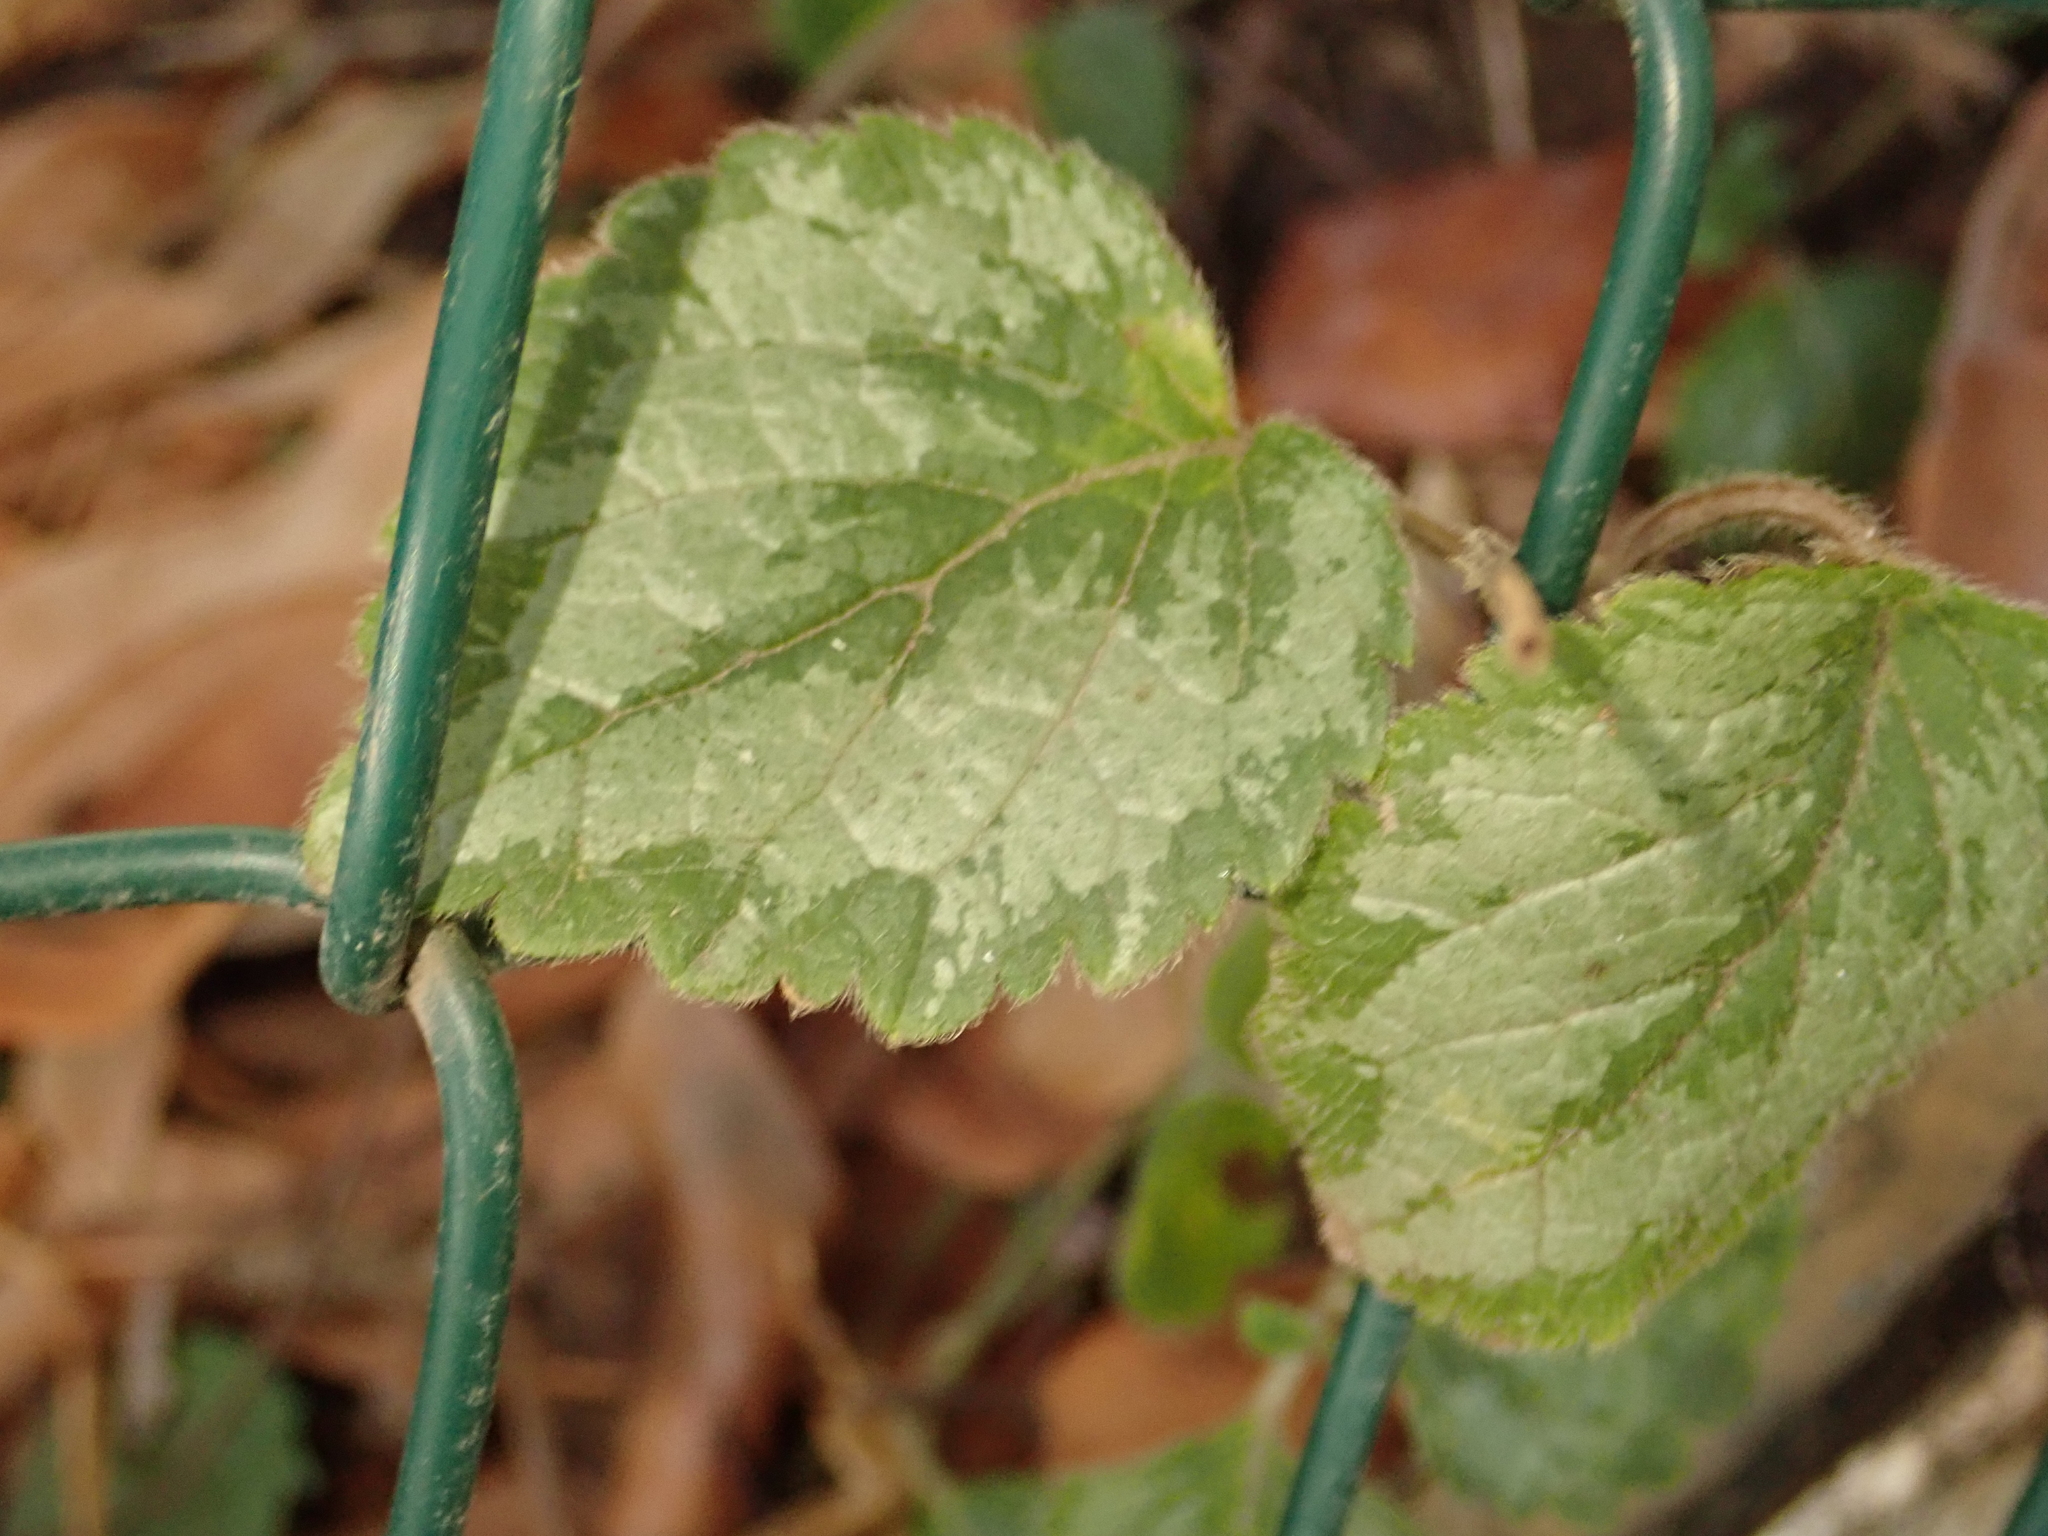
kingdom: Plantae
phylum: Tracheophyta
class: Magnoliopsida
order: Lamiales
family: Lamiaceae
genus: Lamium
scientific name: Lamium galeobdolon
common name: Yellow archangel
